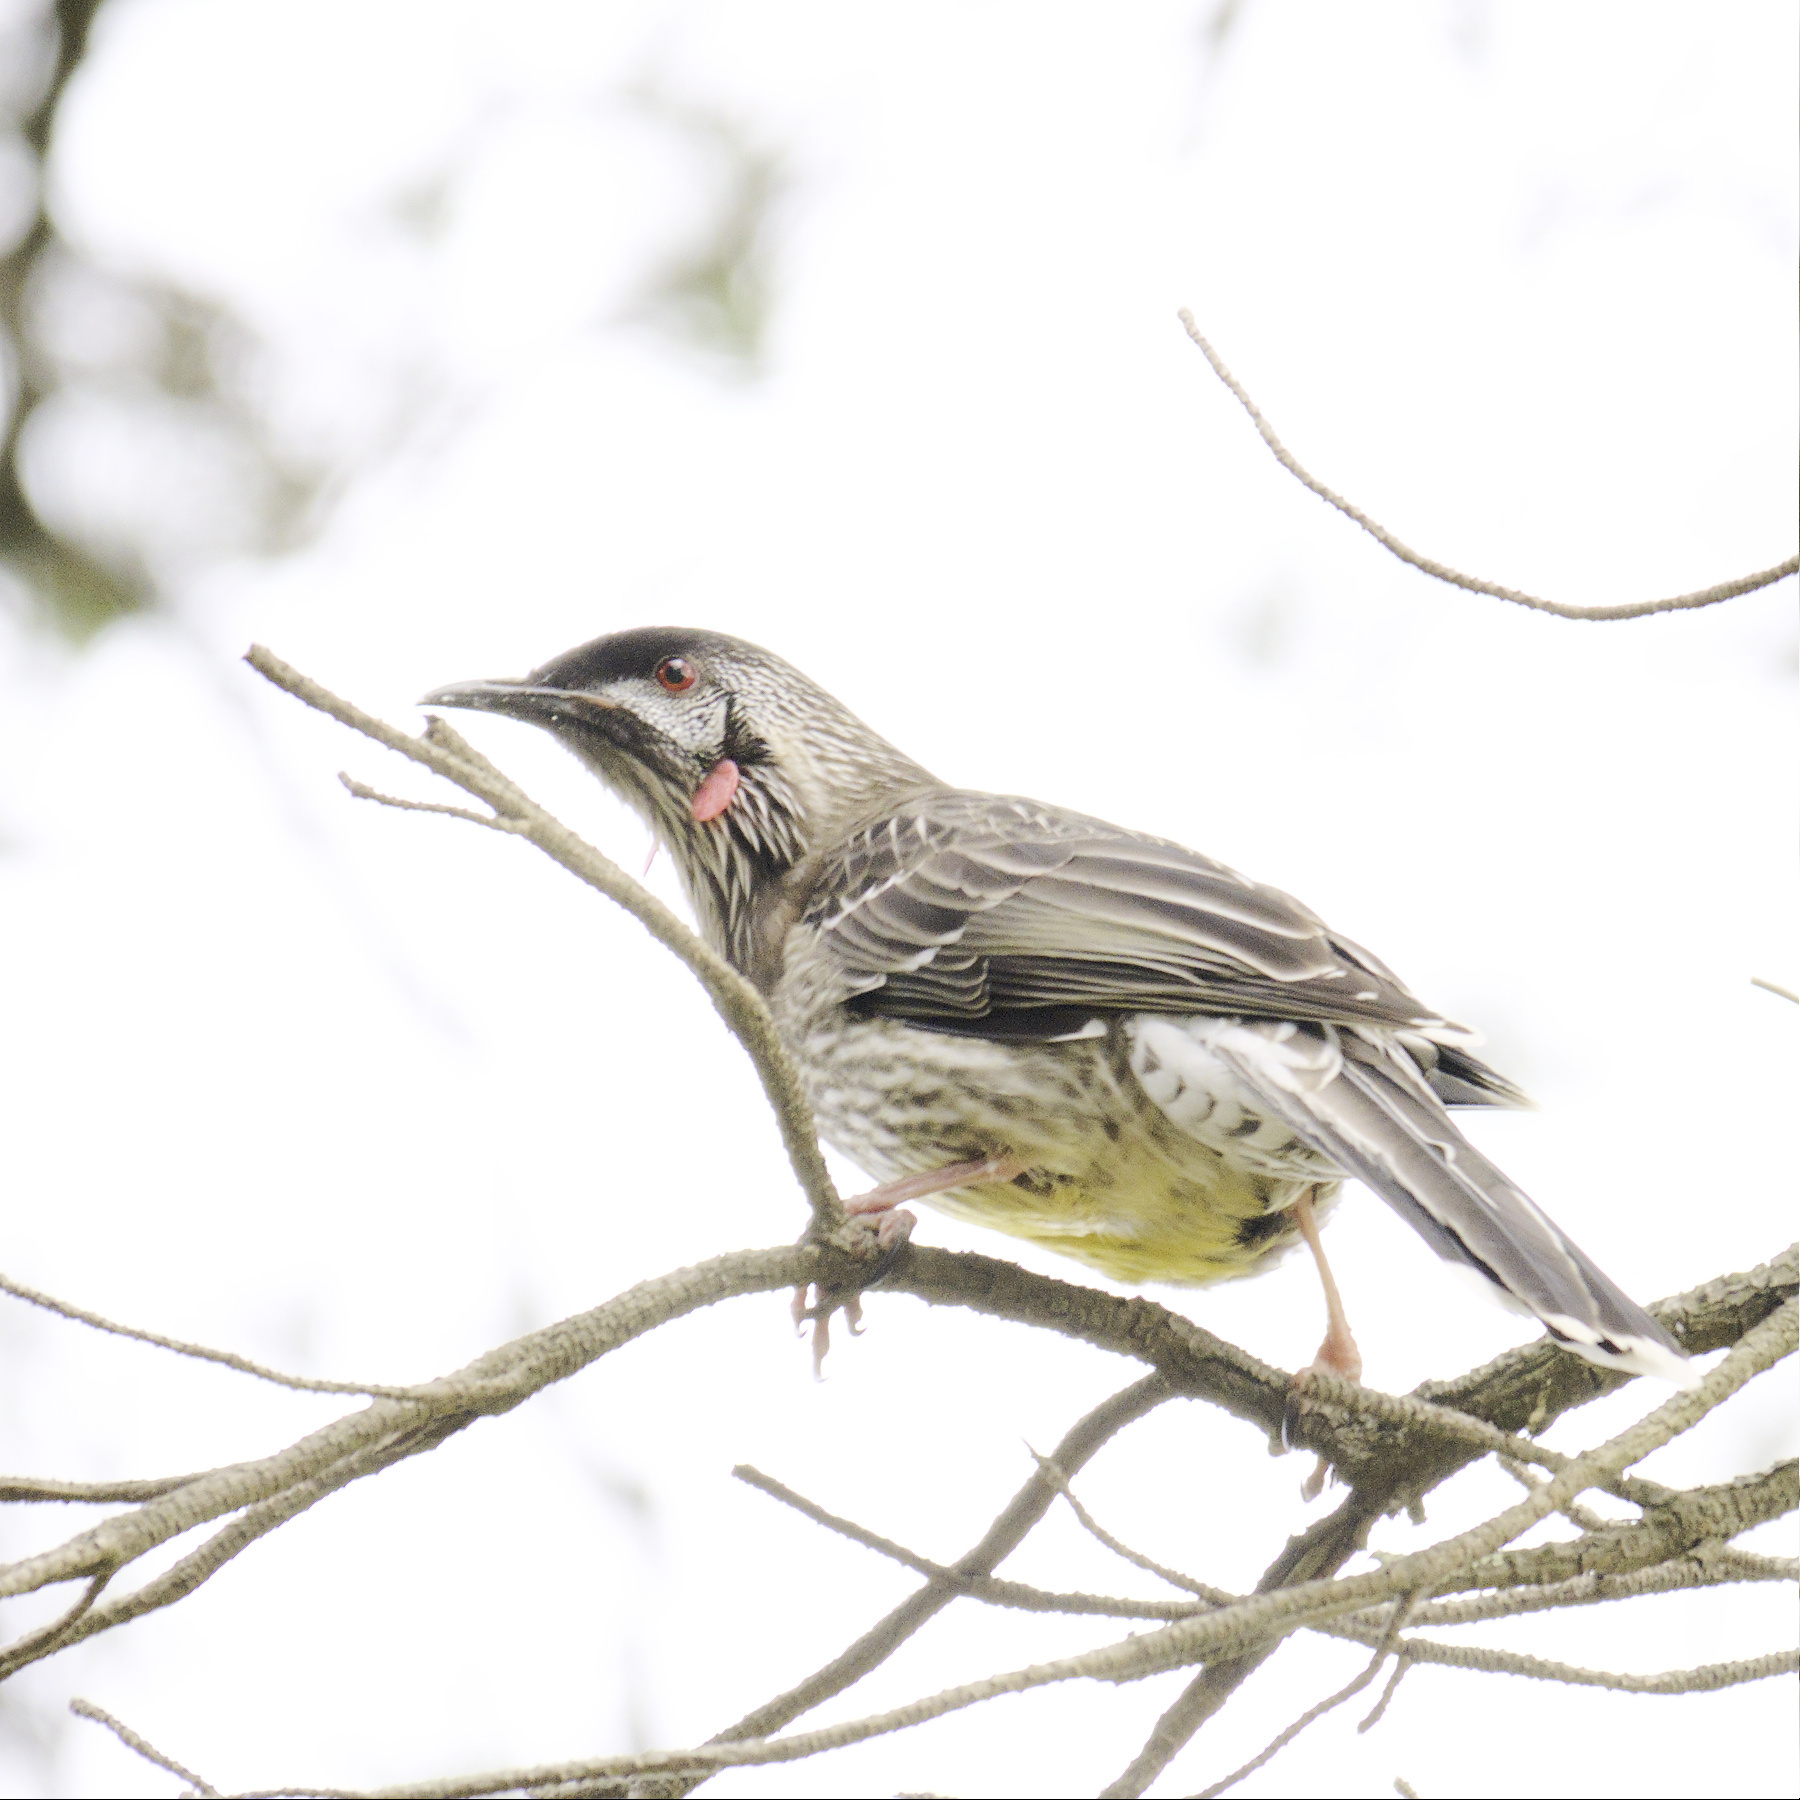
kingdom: Animalia
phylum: Chordata
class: Aves
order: Passeriformes
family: Meliphagidae
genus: Anthochaera
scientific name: Anthochaera carunculata
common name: Red wattlebird
